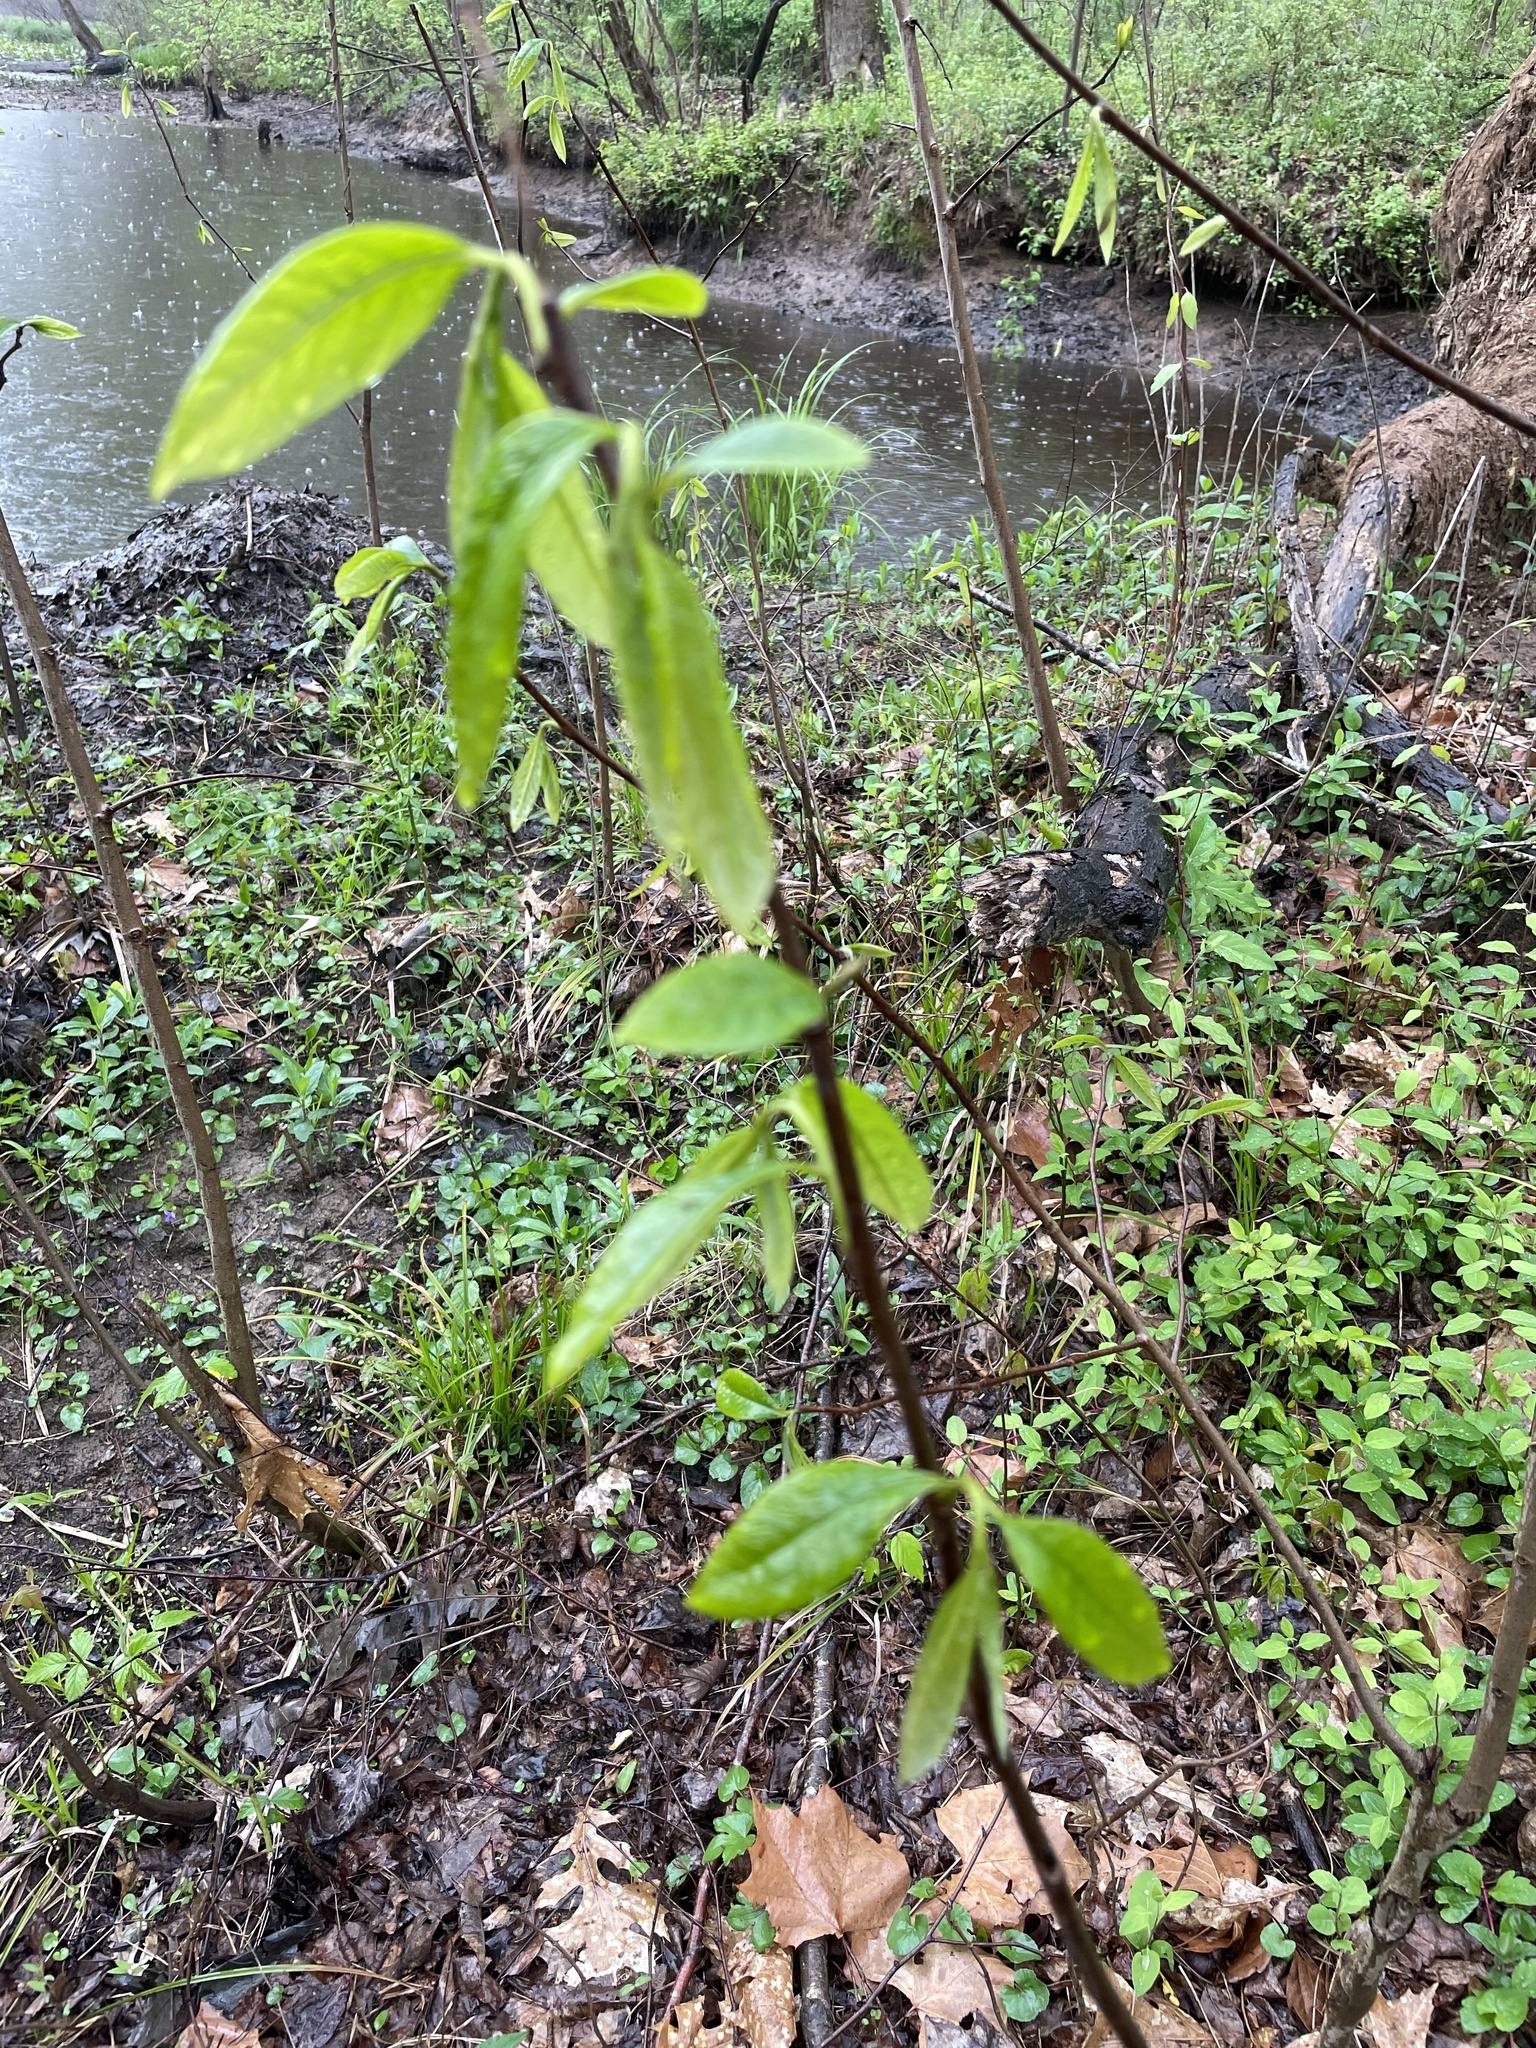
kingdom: Plantae
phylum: Tracheophyta
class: Magnoliopsida
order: Magnoliales
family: Annonaceae
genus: Asimina
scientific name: Asimina triloba
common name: Dog-banana
